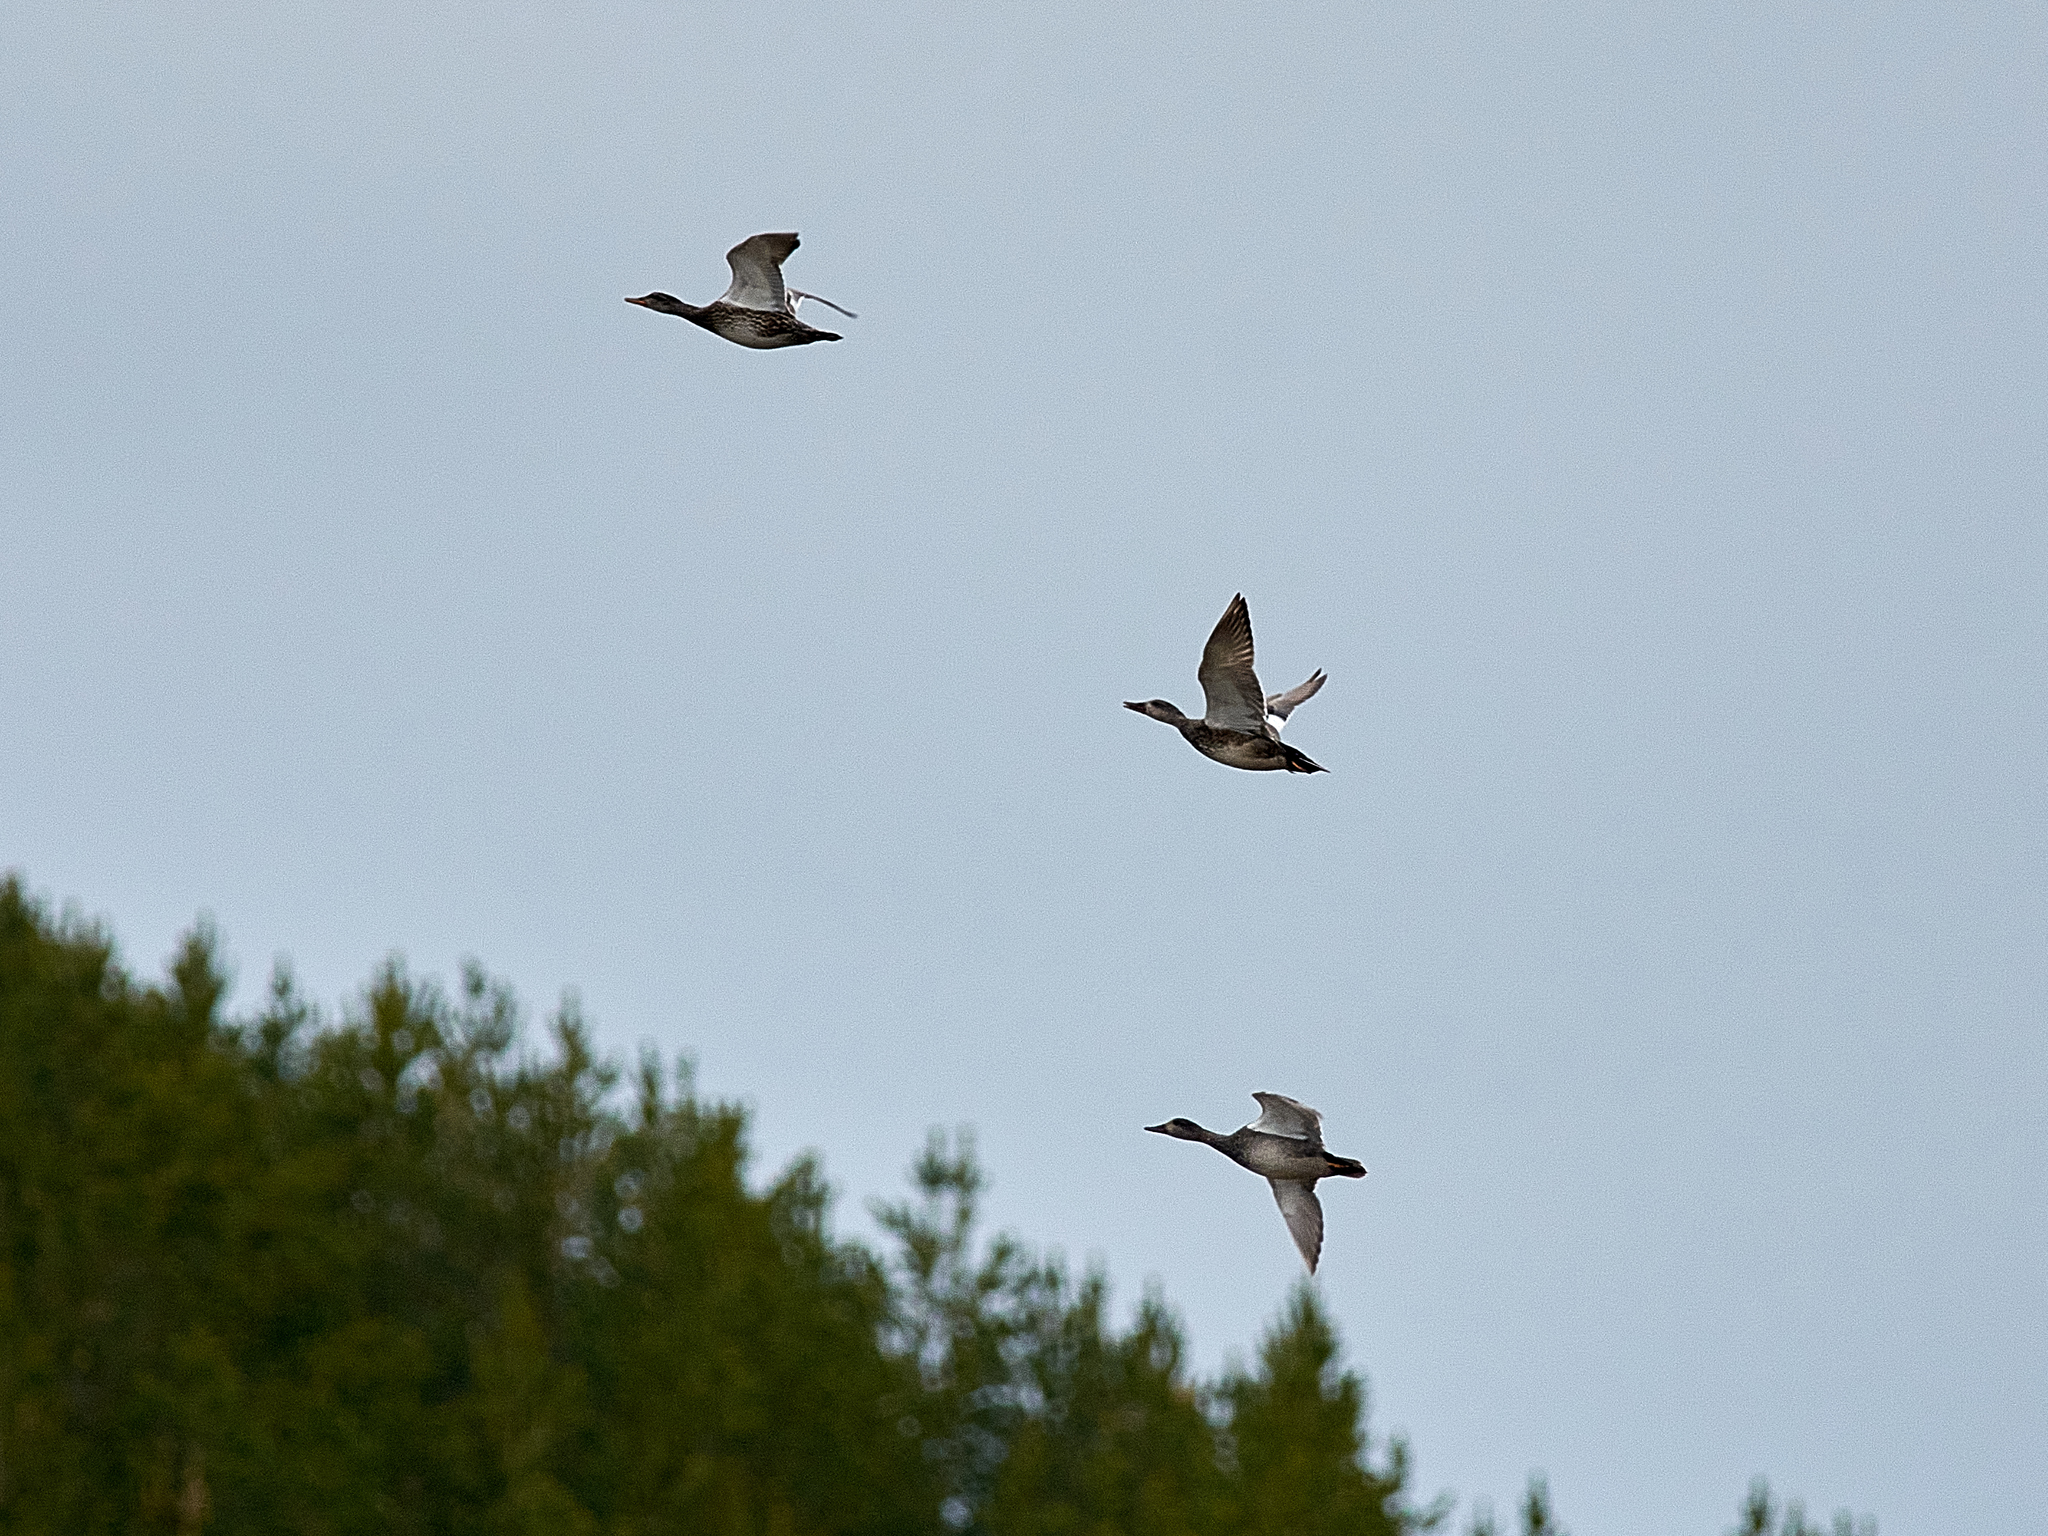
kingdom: Animalia
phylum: Chordata
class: Aves
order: Anseriformes
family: Anatidae
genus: Mareca
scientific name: Mareca strepera
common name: Gadwall
